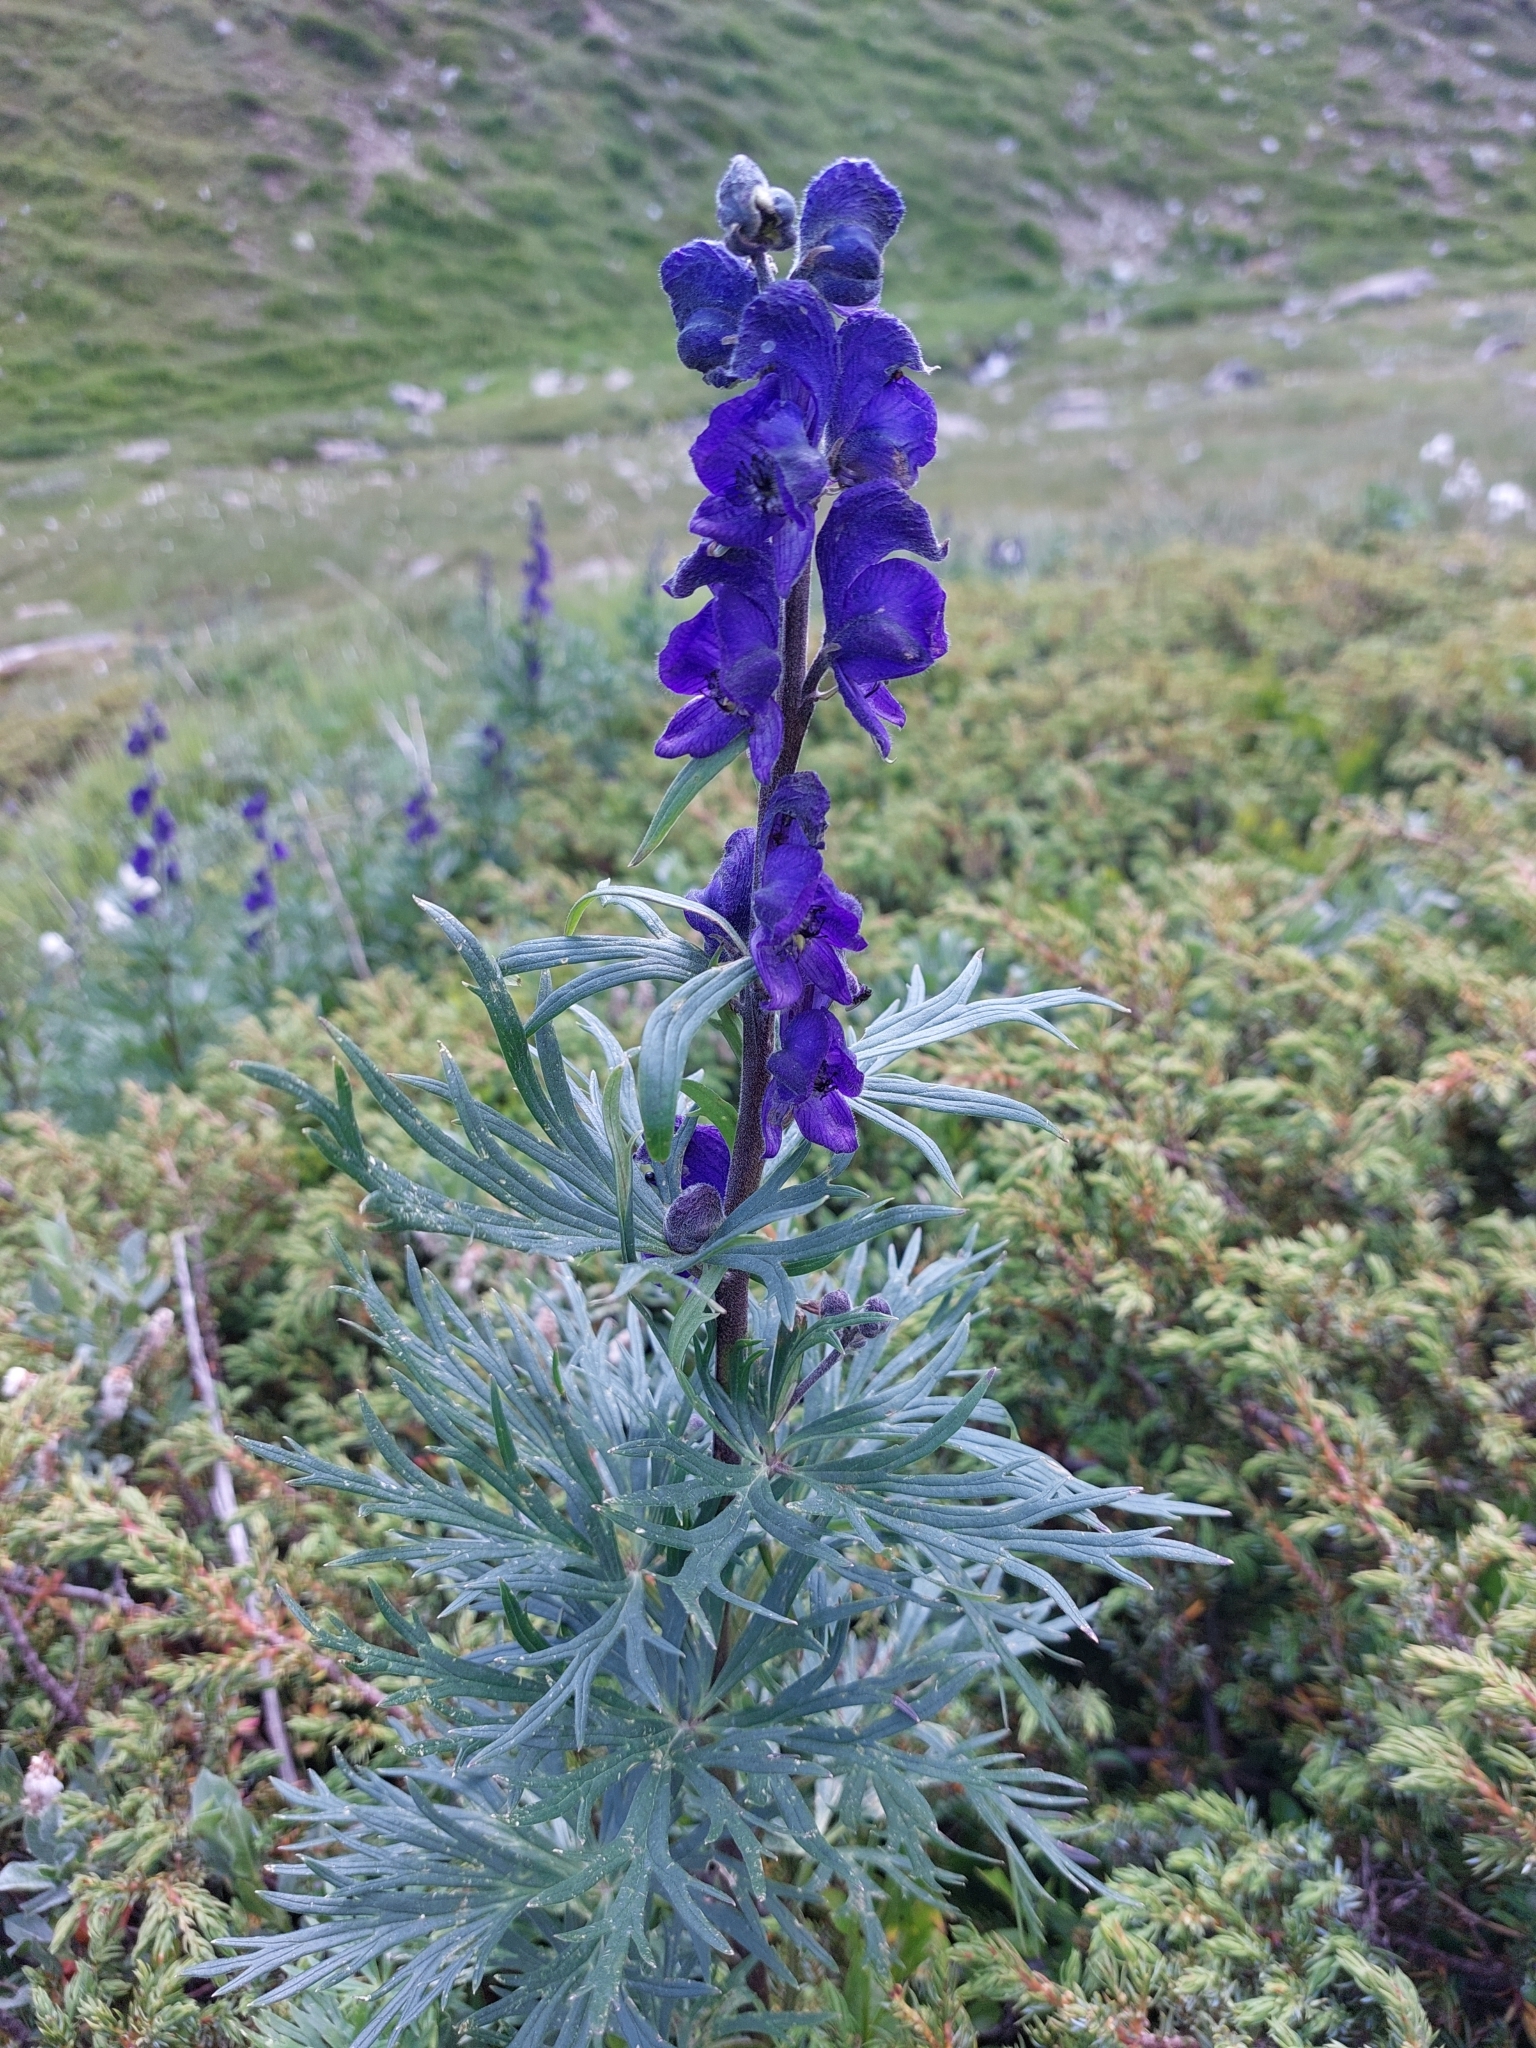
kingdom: Plantae
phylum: Tracheophyta
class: Magnoliopsida
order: Ranunculales
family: Ranunculaceae
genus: Aconitum
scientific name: Aconitum napellus
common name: Garden monkshood
